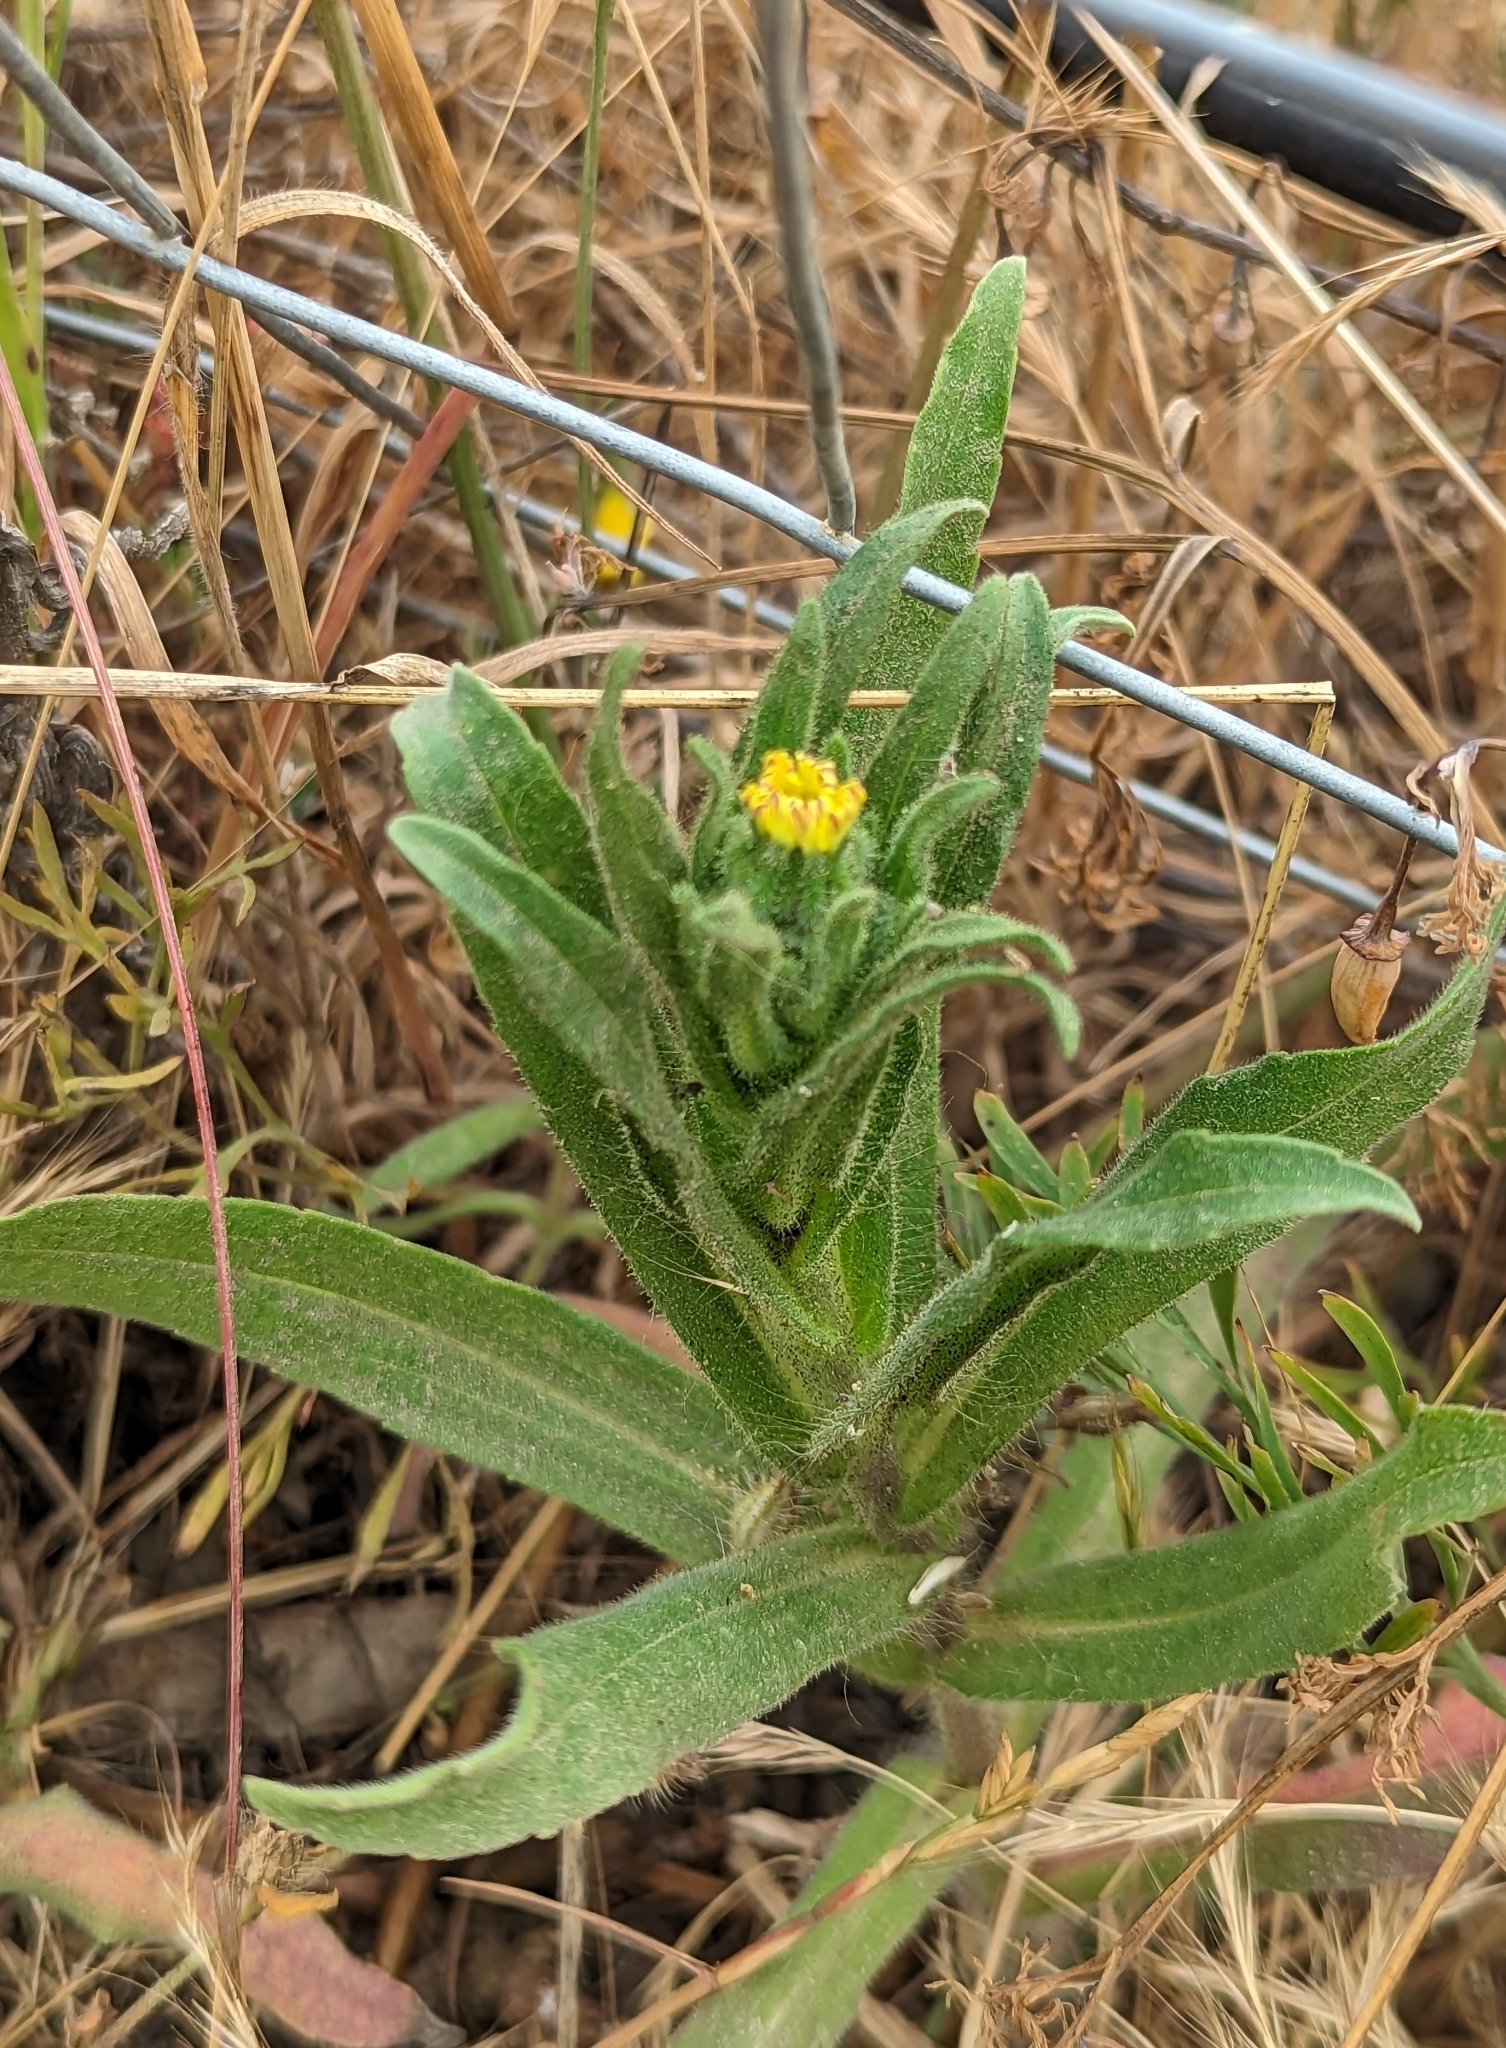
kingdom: Plantae
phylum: Tracheophyta
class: Magnoliopsida
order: Asterales
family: Asteraceae
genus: Madia
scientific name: Madia sativa
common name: Coast tarweed
